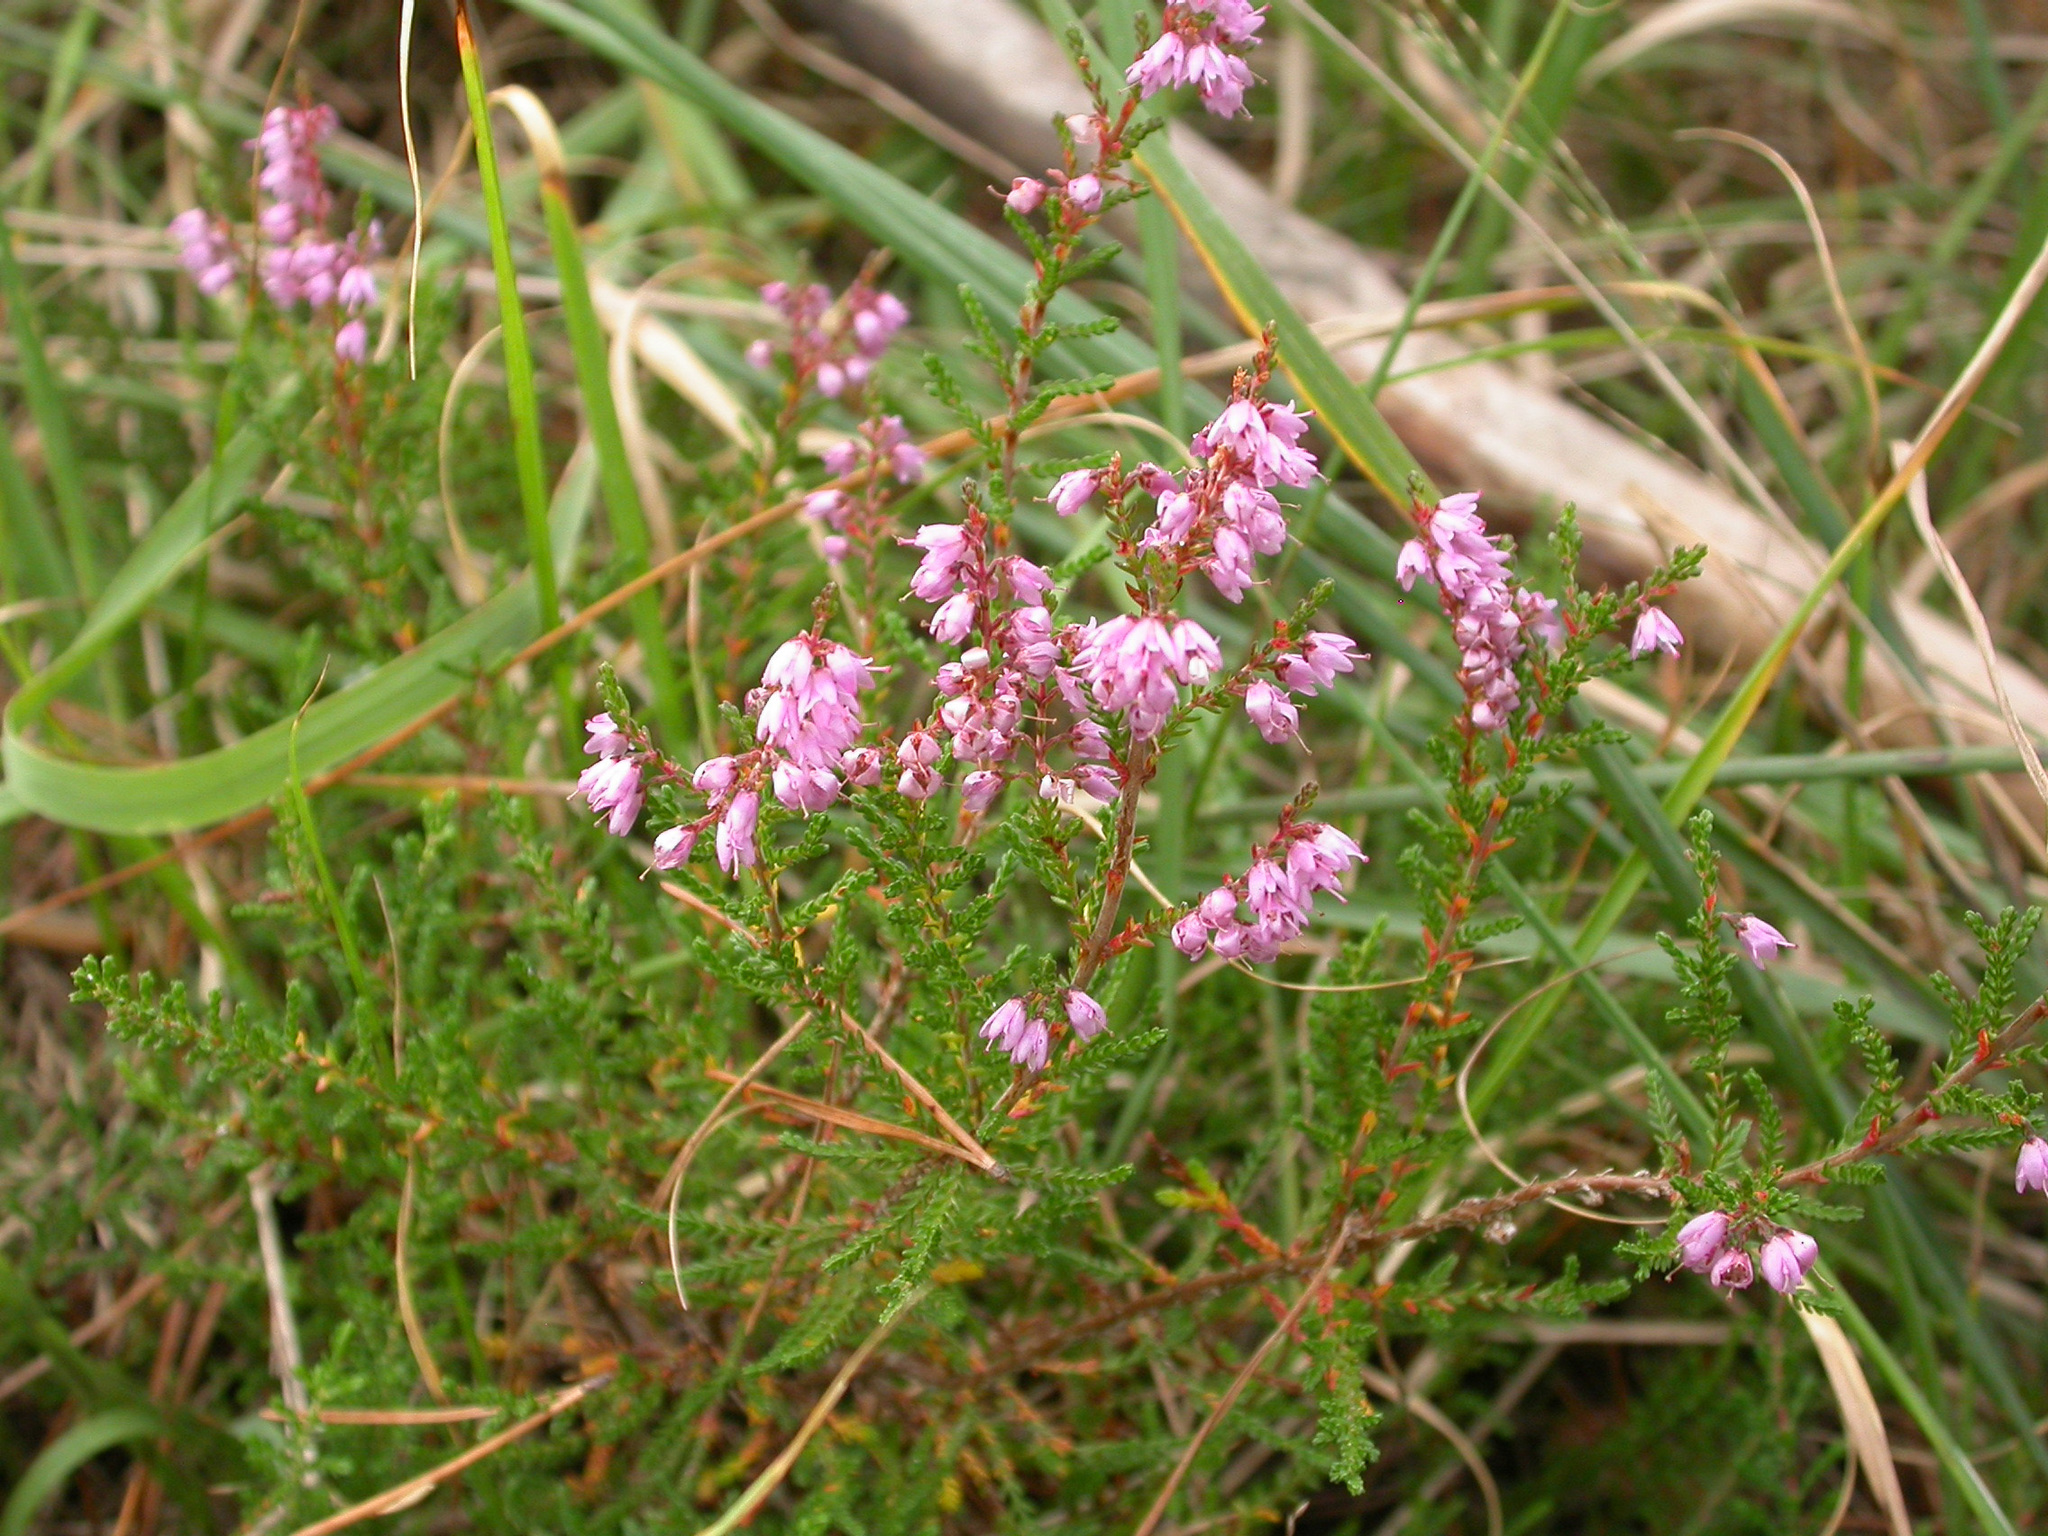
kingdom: Plantae
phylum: Tracheophyta
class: Magnoliopsida
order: Ericales
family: Ericaceae
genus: Calluna
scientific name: Calluna vulgaris
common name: Heather
